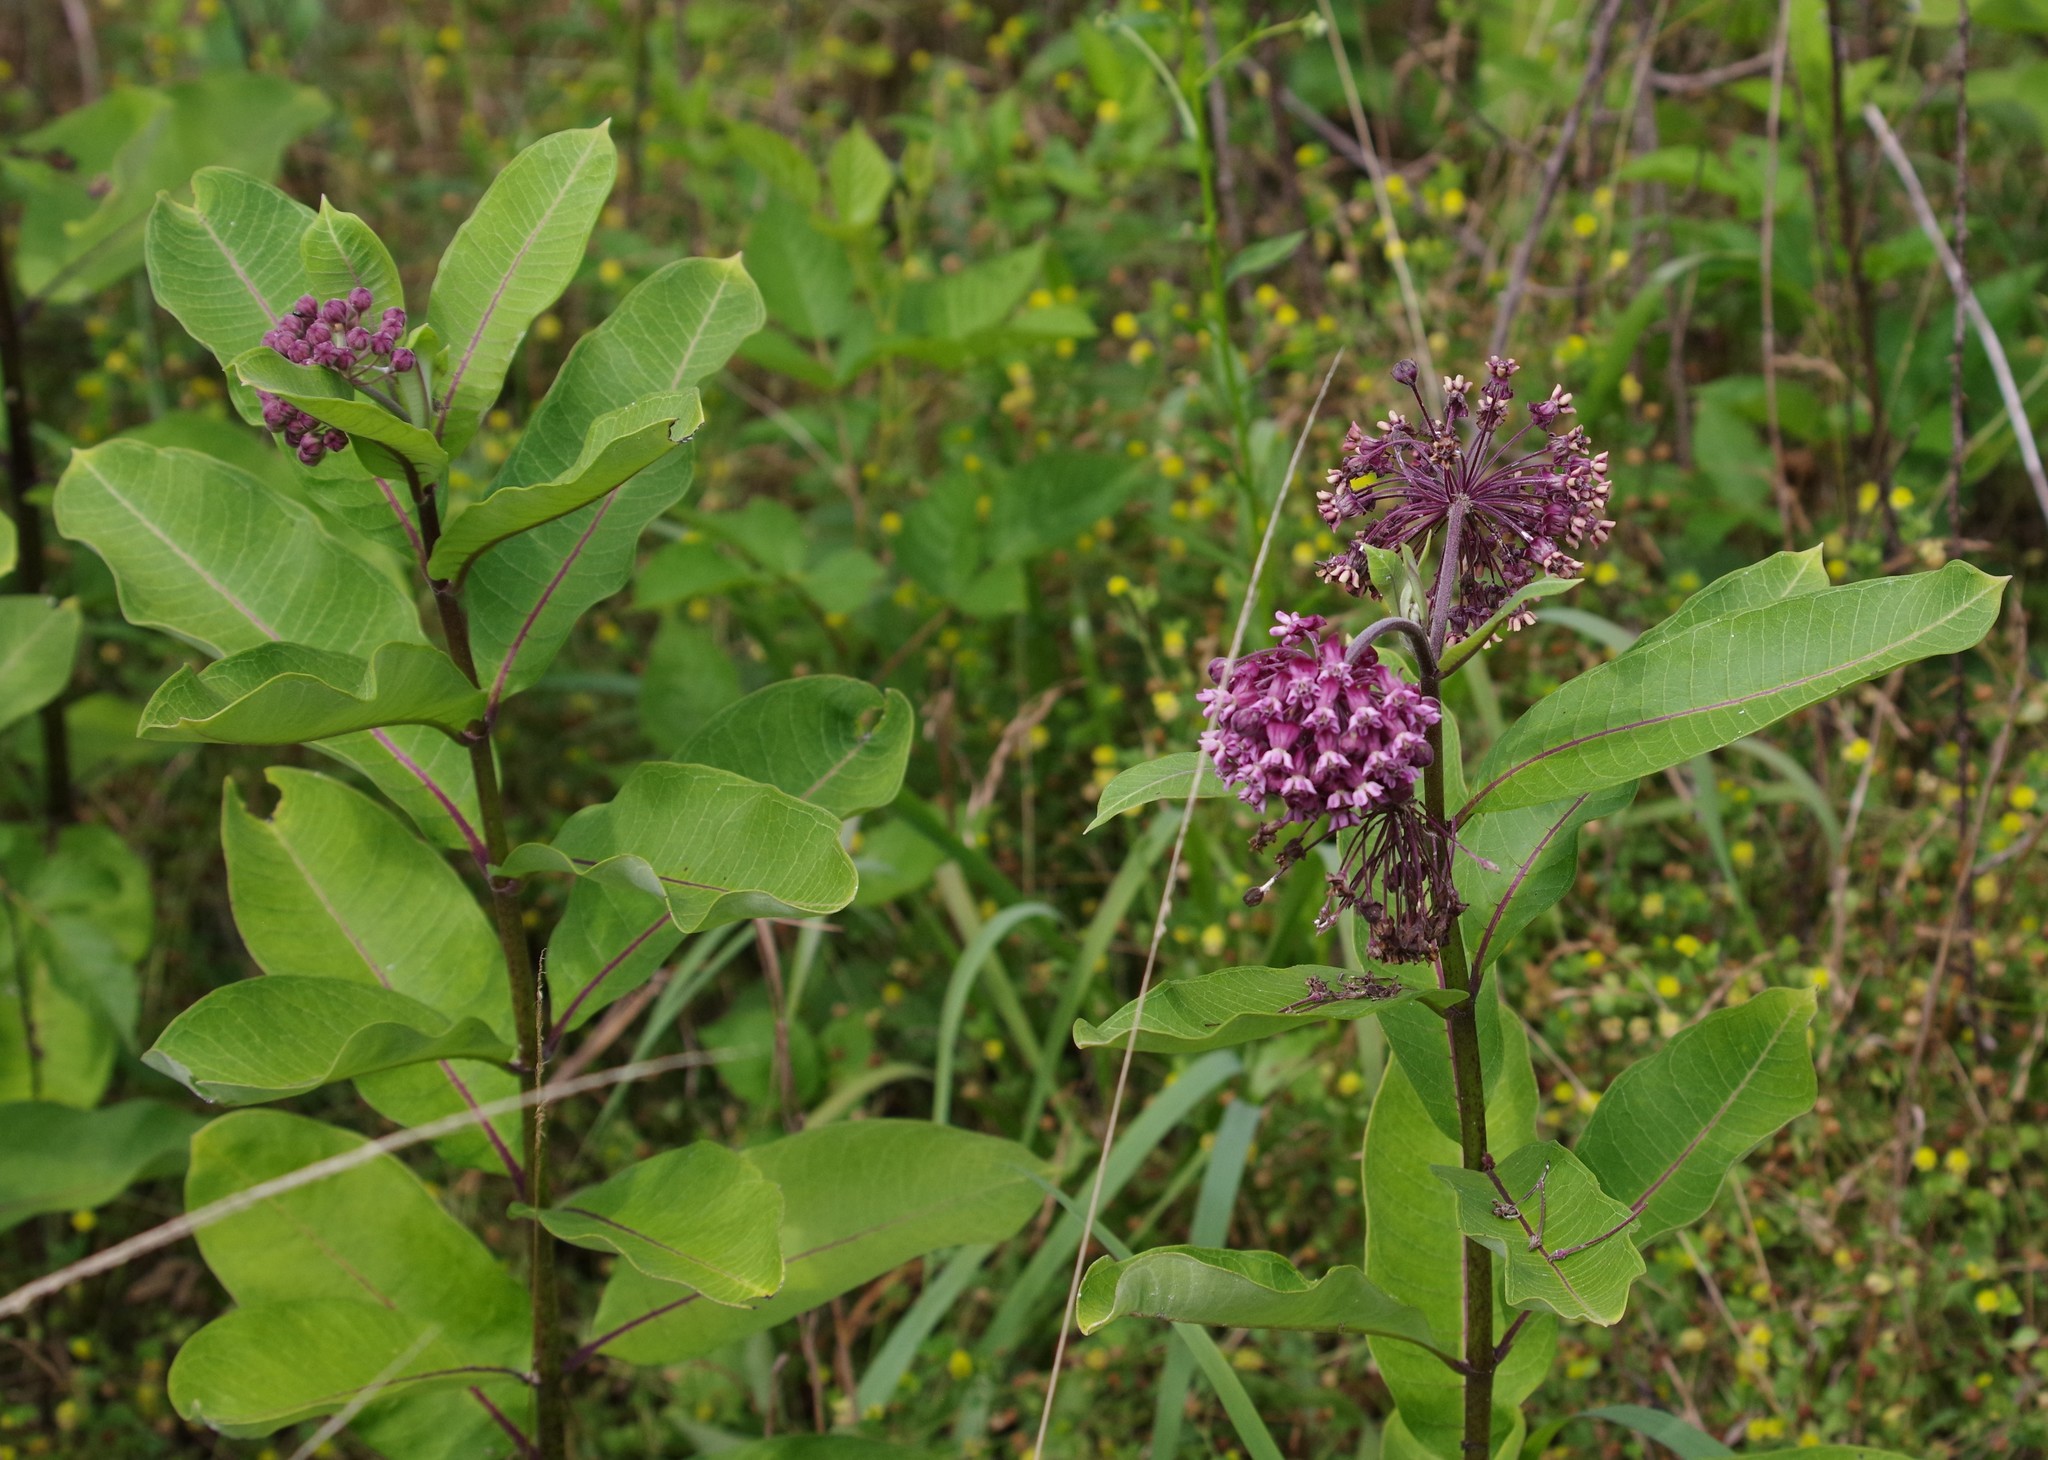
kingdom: Plantae
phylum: Tracheophyta
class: Magnoliopsida
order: Gentianales
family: Apocynaceae
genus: Asclepias
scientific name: Asclepias syriaca
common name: Common milkweed
